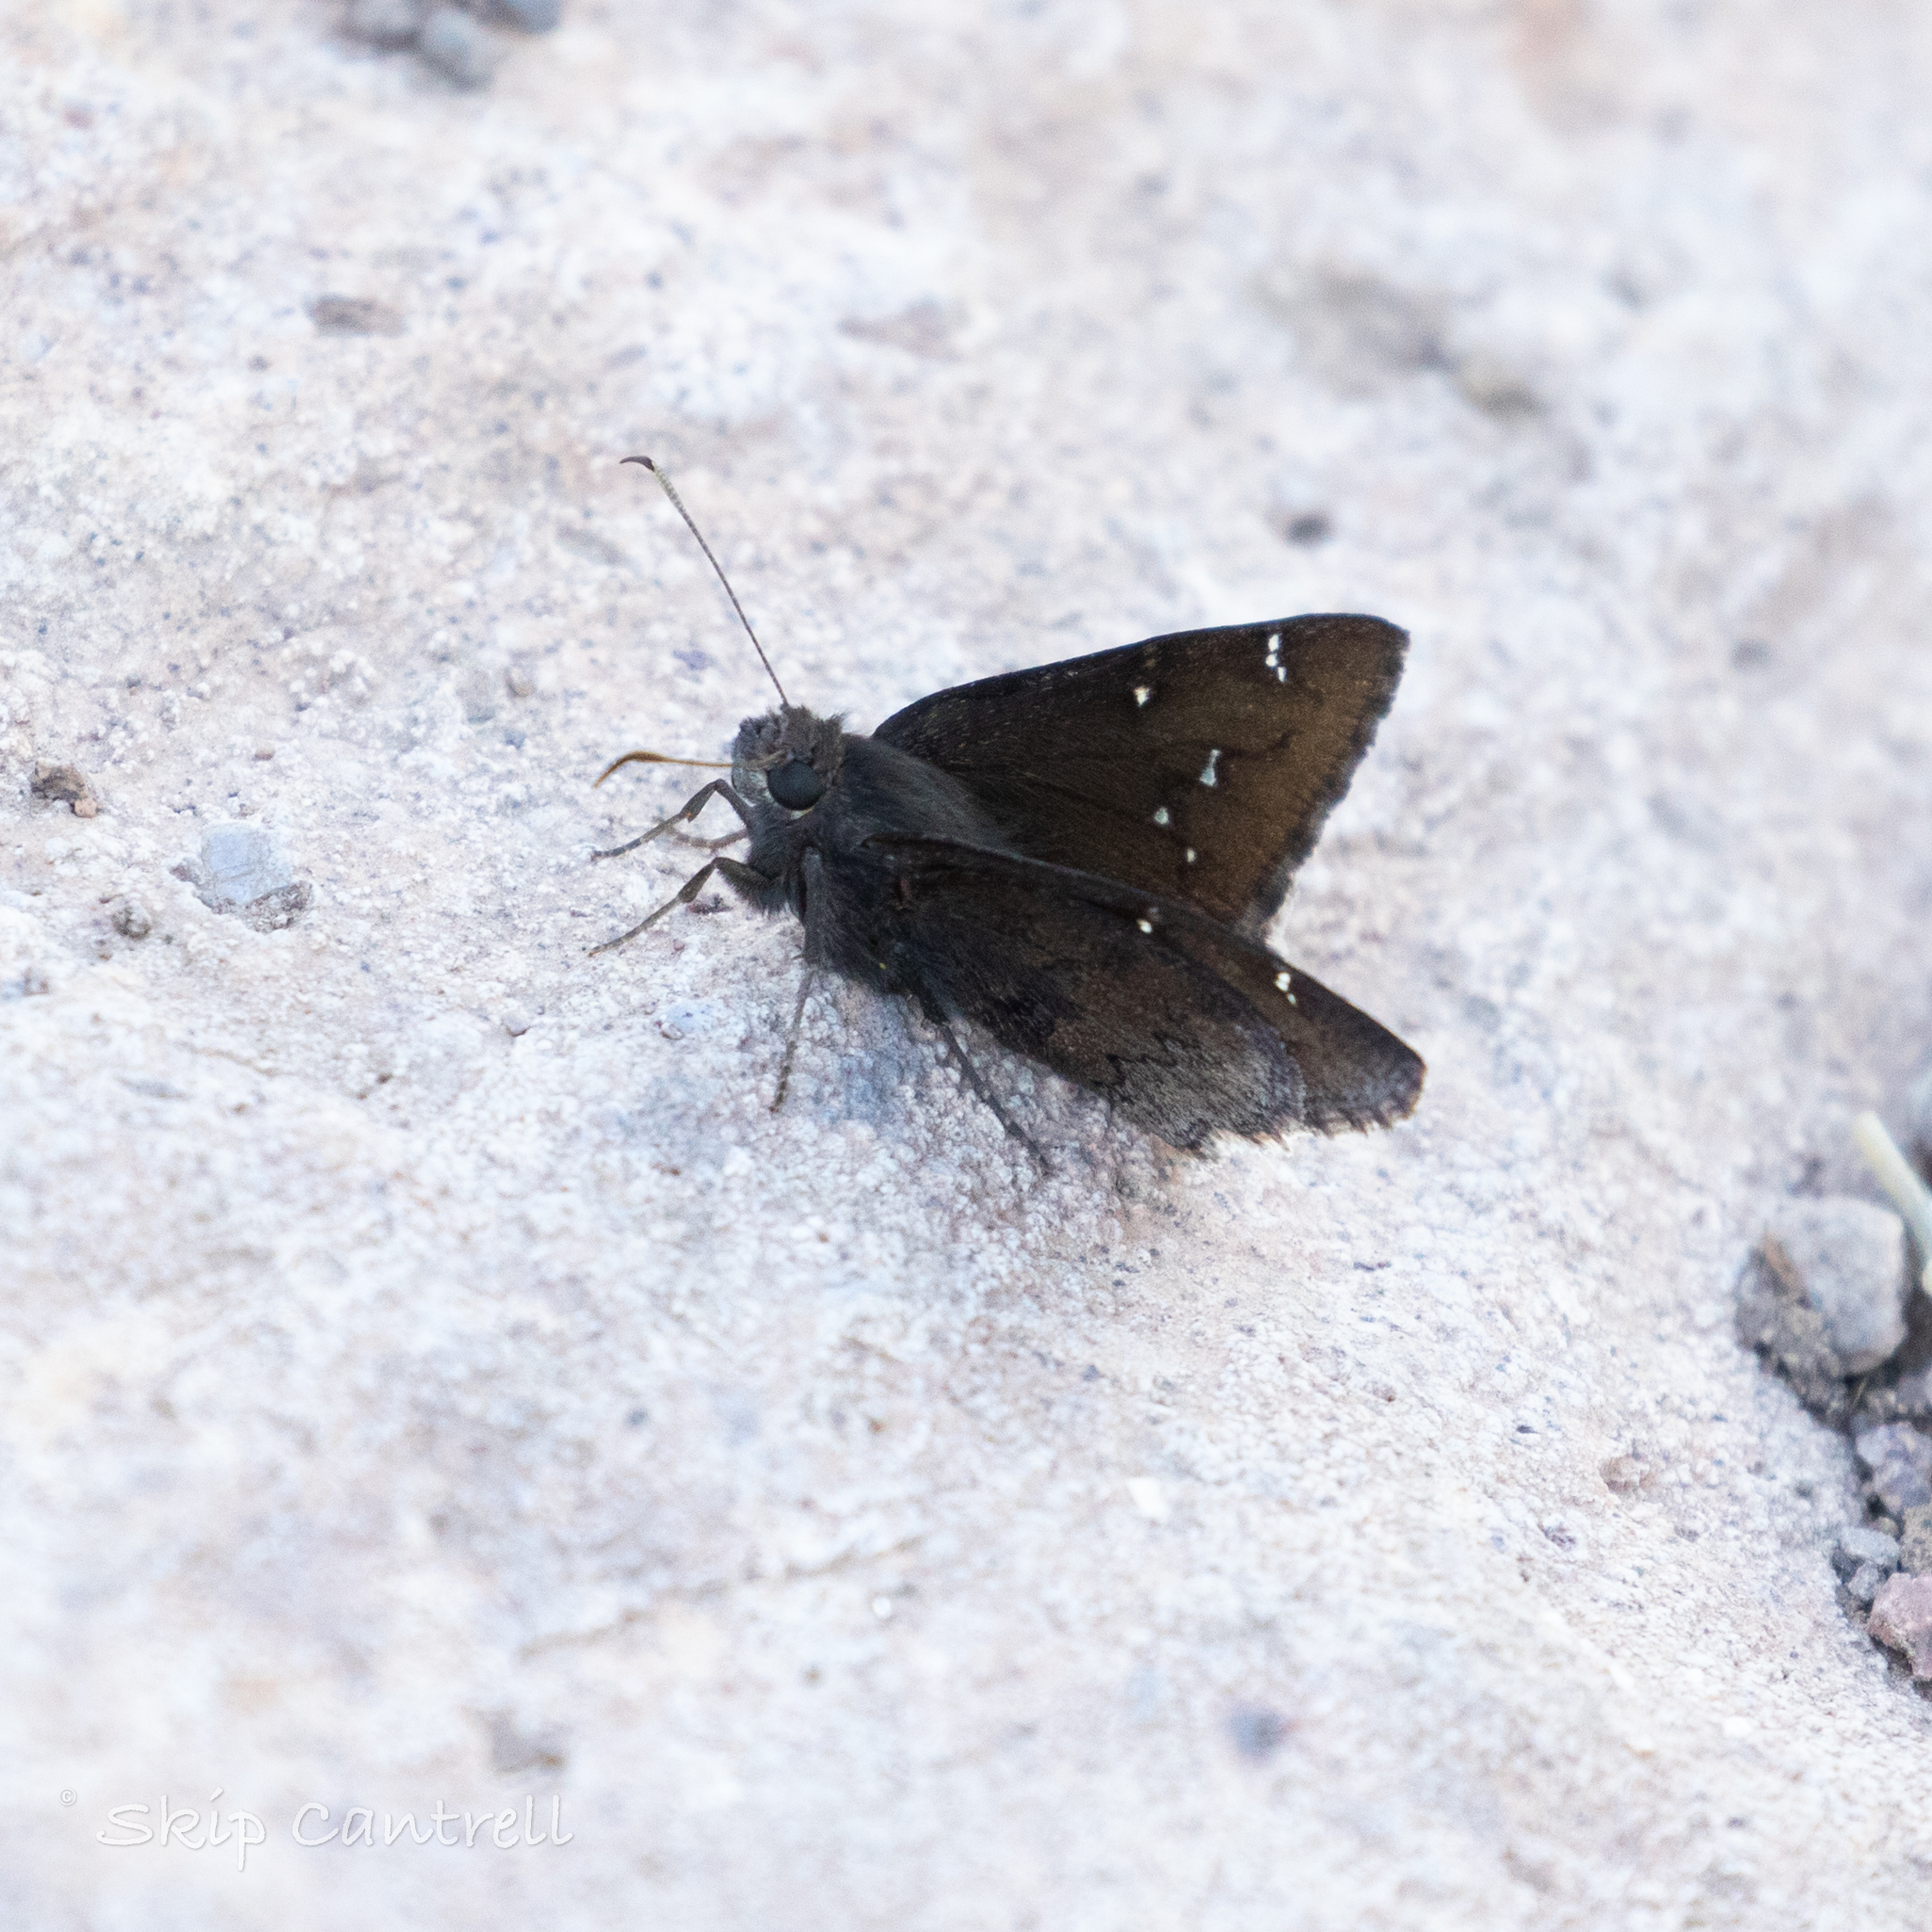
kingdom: Animalia
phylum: Arthropoda
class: Insecta
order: Lepidoptera
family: Hesperiidae
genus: Thorybes
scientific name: Thorybes pylades
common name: Northern cloudywing
